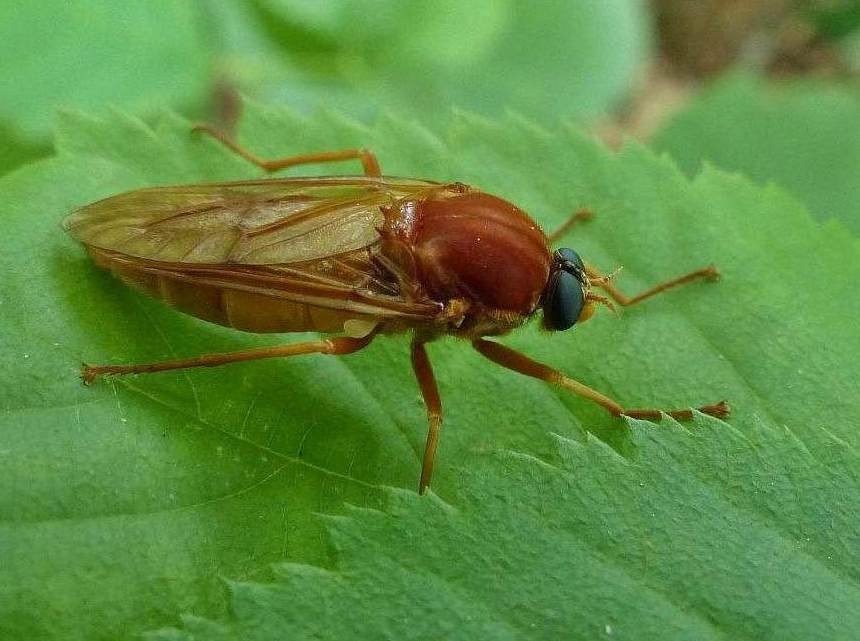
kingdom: Animalia
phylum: Arthropoda
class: Insecta
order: Diptera
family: Xylophagidae
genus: Coenomyia
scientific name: Coenomyia ferruginea
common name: Stink fly
